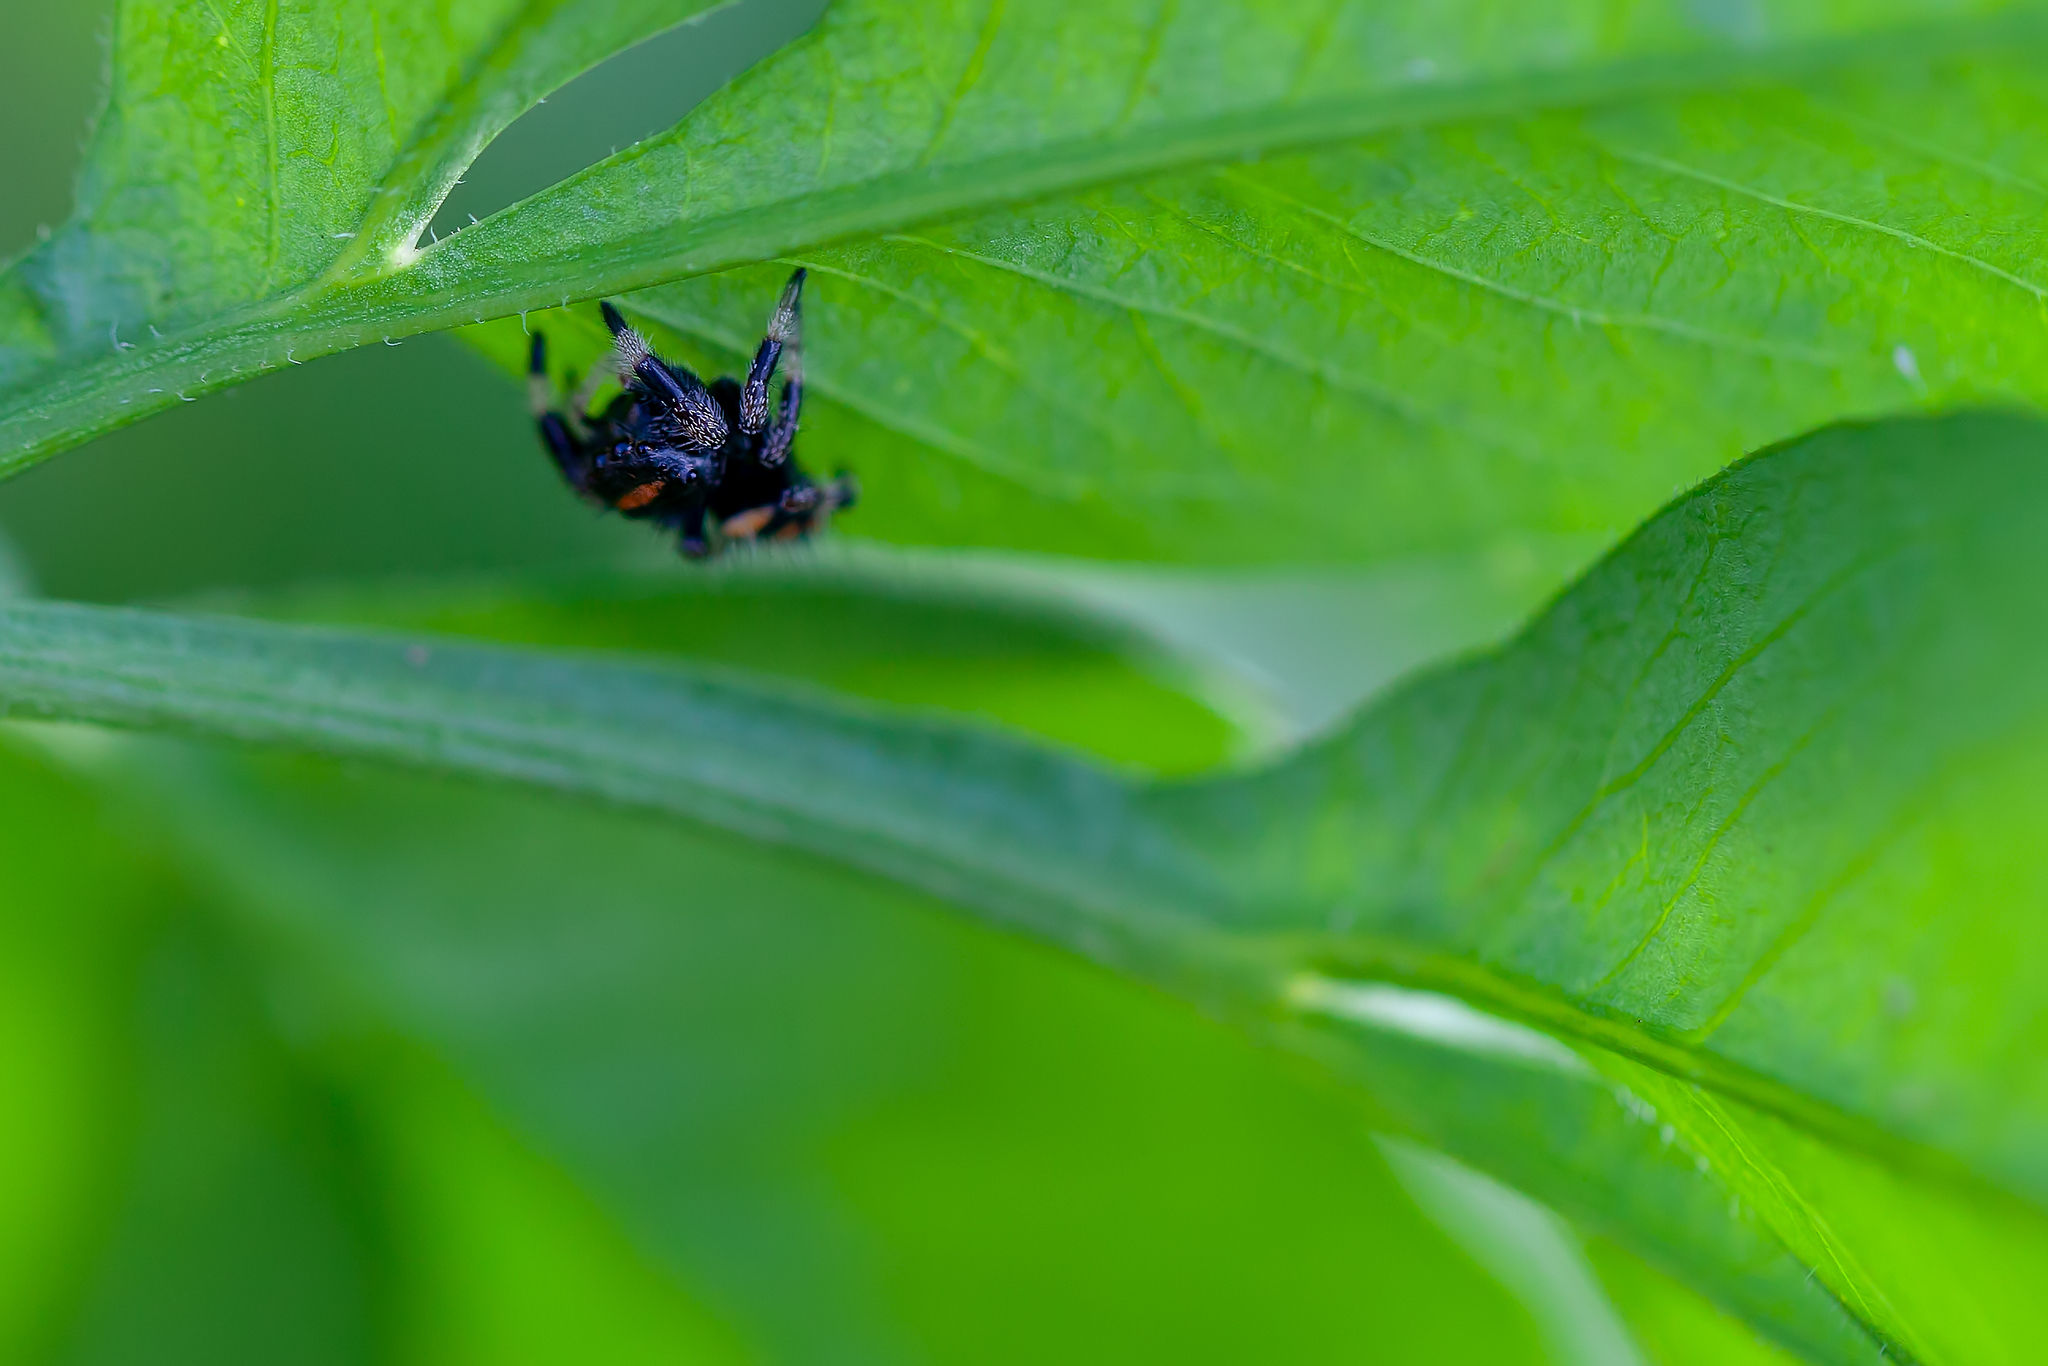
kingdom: Animalia
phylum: Arthropoda
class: Arachnida
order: Araneae
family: Salticidae
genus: Phidippus
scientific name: Phidippus regius
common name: Regal jumper
